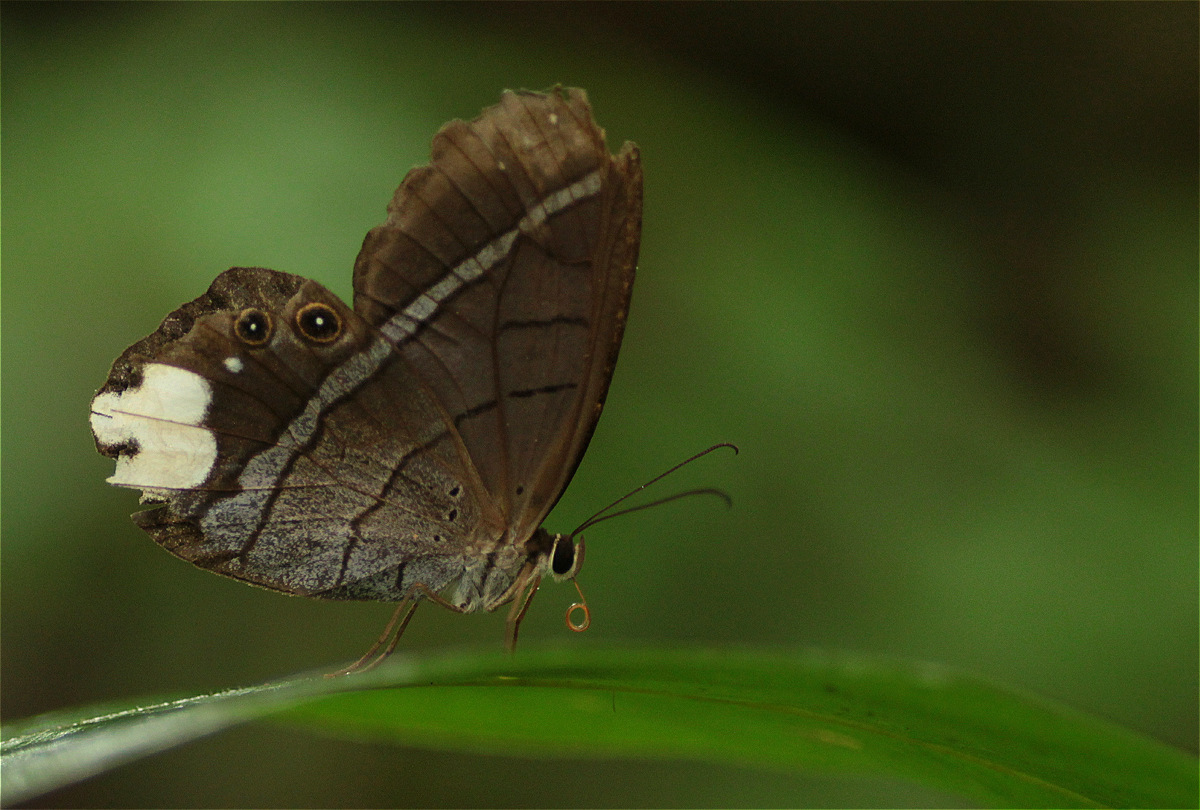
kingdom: Animalia
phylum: Arthropoda
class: Insecta
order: Lepidoptera
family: Nymphalidae
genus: Pierella
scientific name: Pierella astyoche
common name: Astyoche satyr
